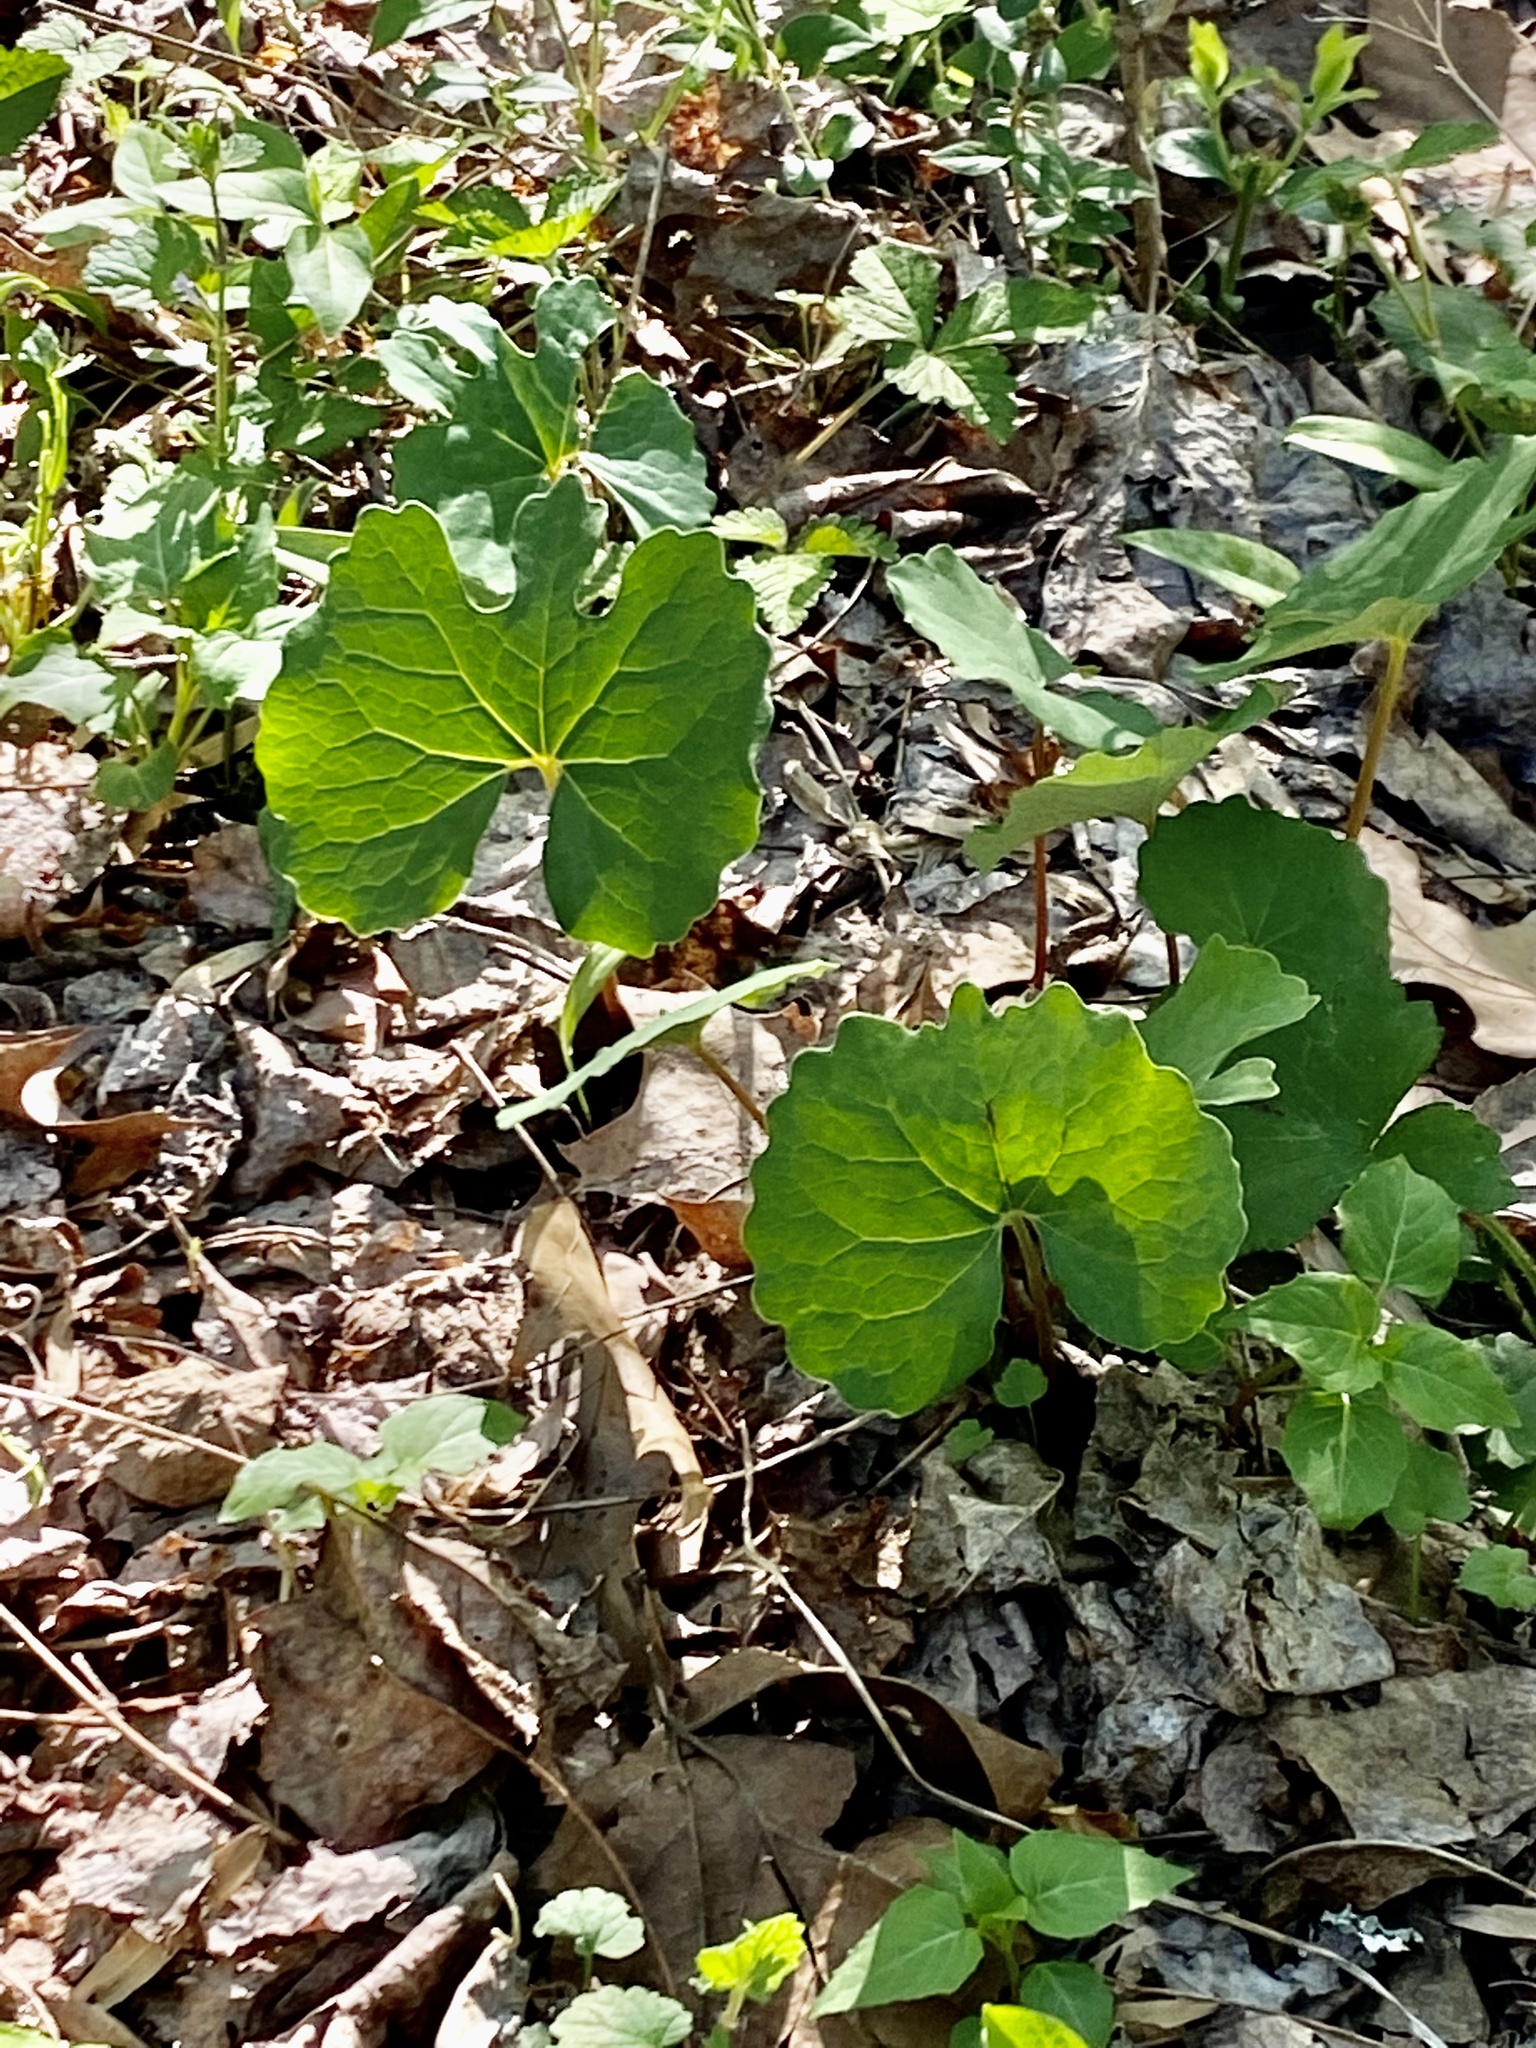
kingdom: Plantae
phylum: Tracheophyta
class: Magnoliopsida
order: Ranunculales
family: Papaveraceae
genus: Sanguinaria
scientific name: Sanguinaria canadensis
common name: Bloodroot
